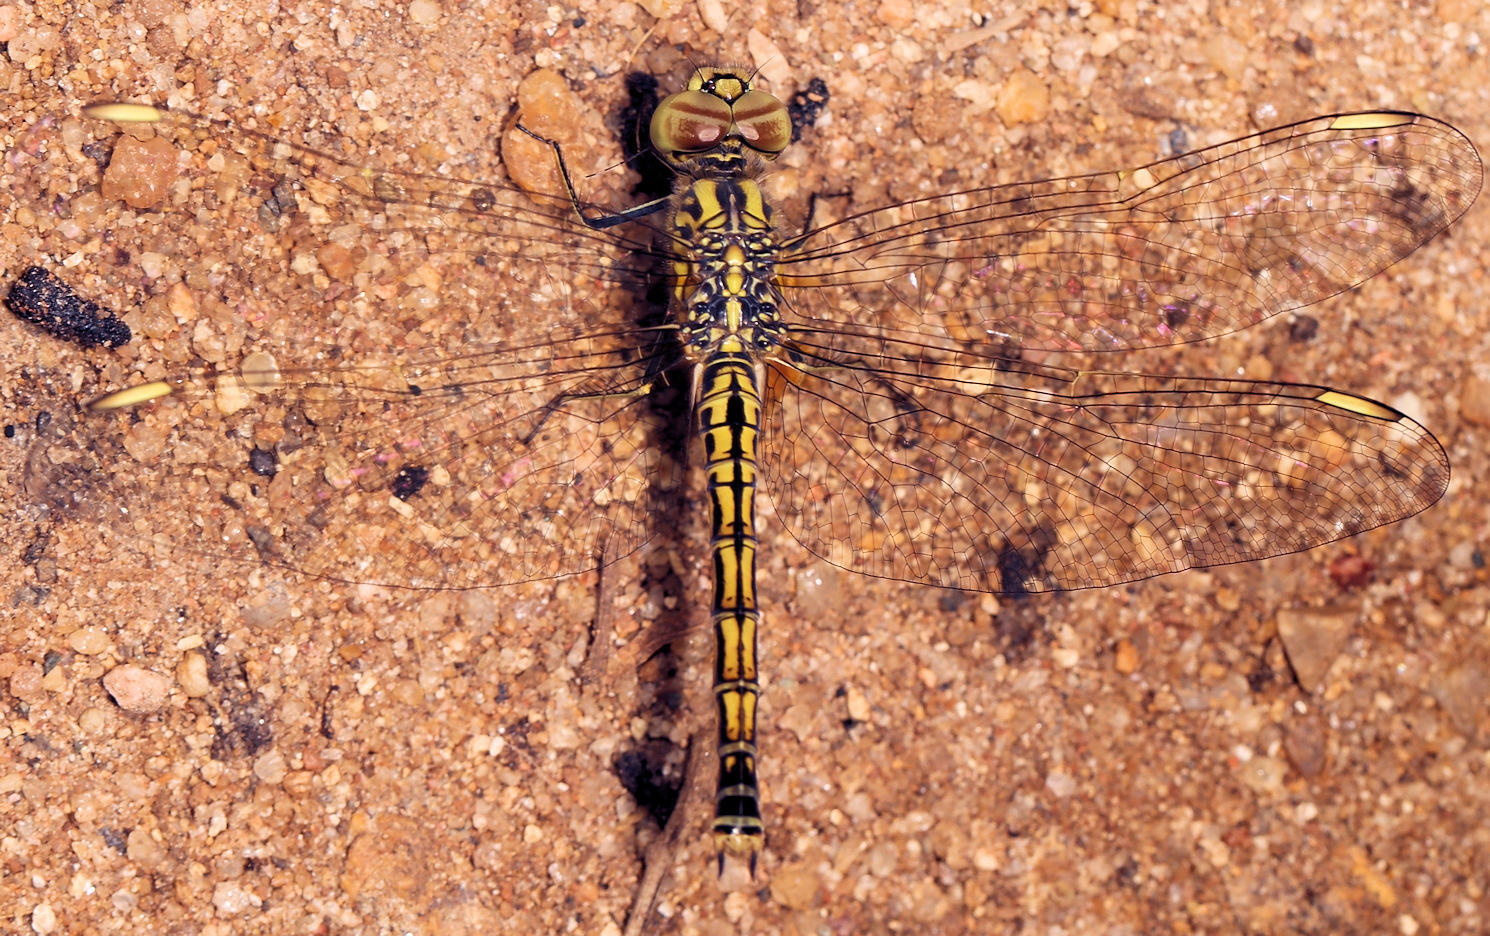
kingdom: Animalia
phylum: Arthropoda
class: Insecta
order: Odonata
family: Libellulidae
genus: Brachythemis
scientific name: Brachythemis leucosticta
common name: Banded groundling
